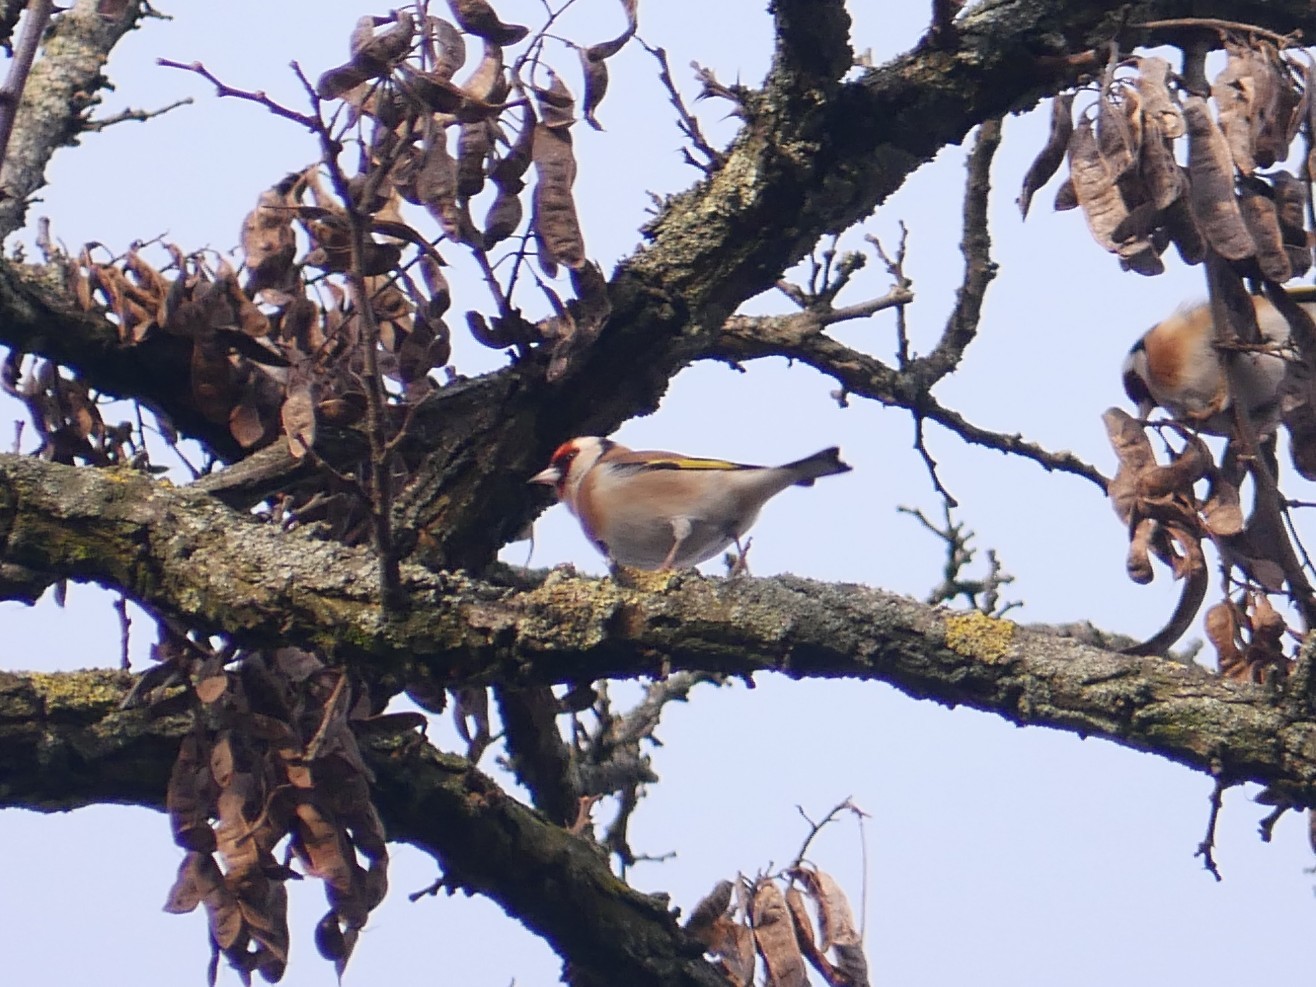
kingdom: Animalia
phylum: Chordata
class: Aves
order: Passeriformes
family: Fringillidae
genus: Carduelis
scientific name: Carduelis carduelis
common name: European goldfinch
